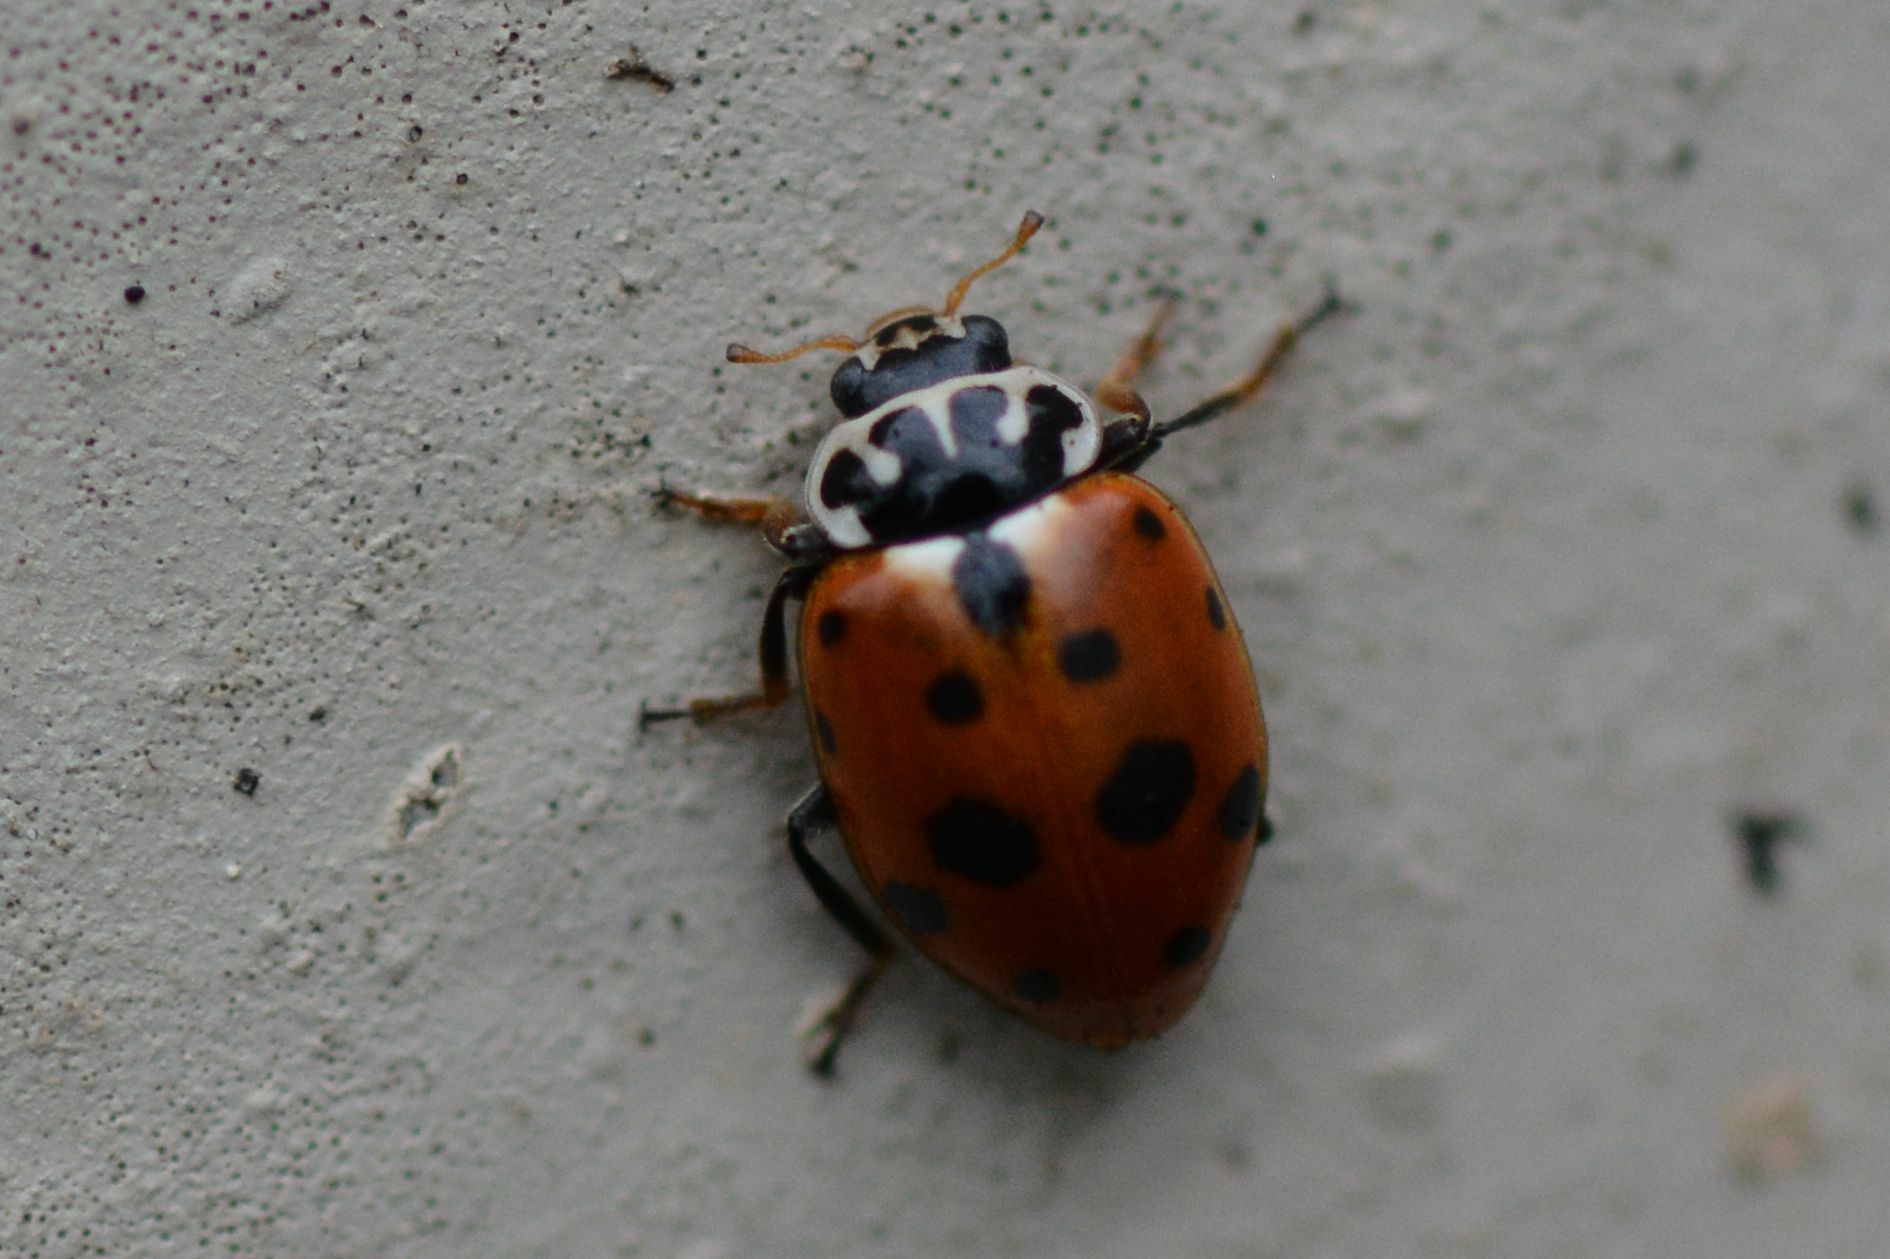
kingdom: Animalia
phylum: Arthropoda
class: Insecta
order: Coleoptera
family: Coccinellidae
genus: Hippodamia
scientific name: Hippodamia variegata
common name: Ladybird beetle
